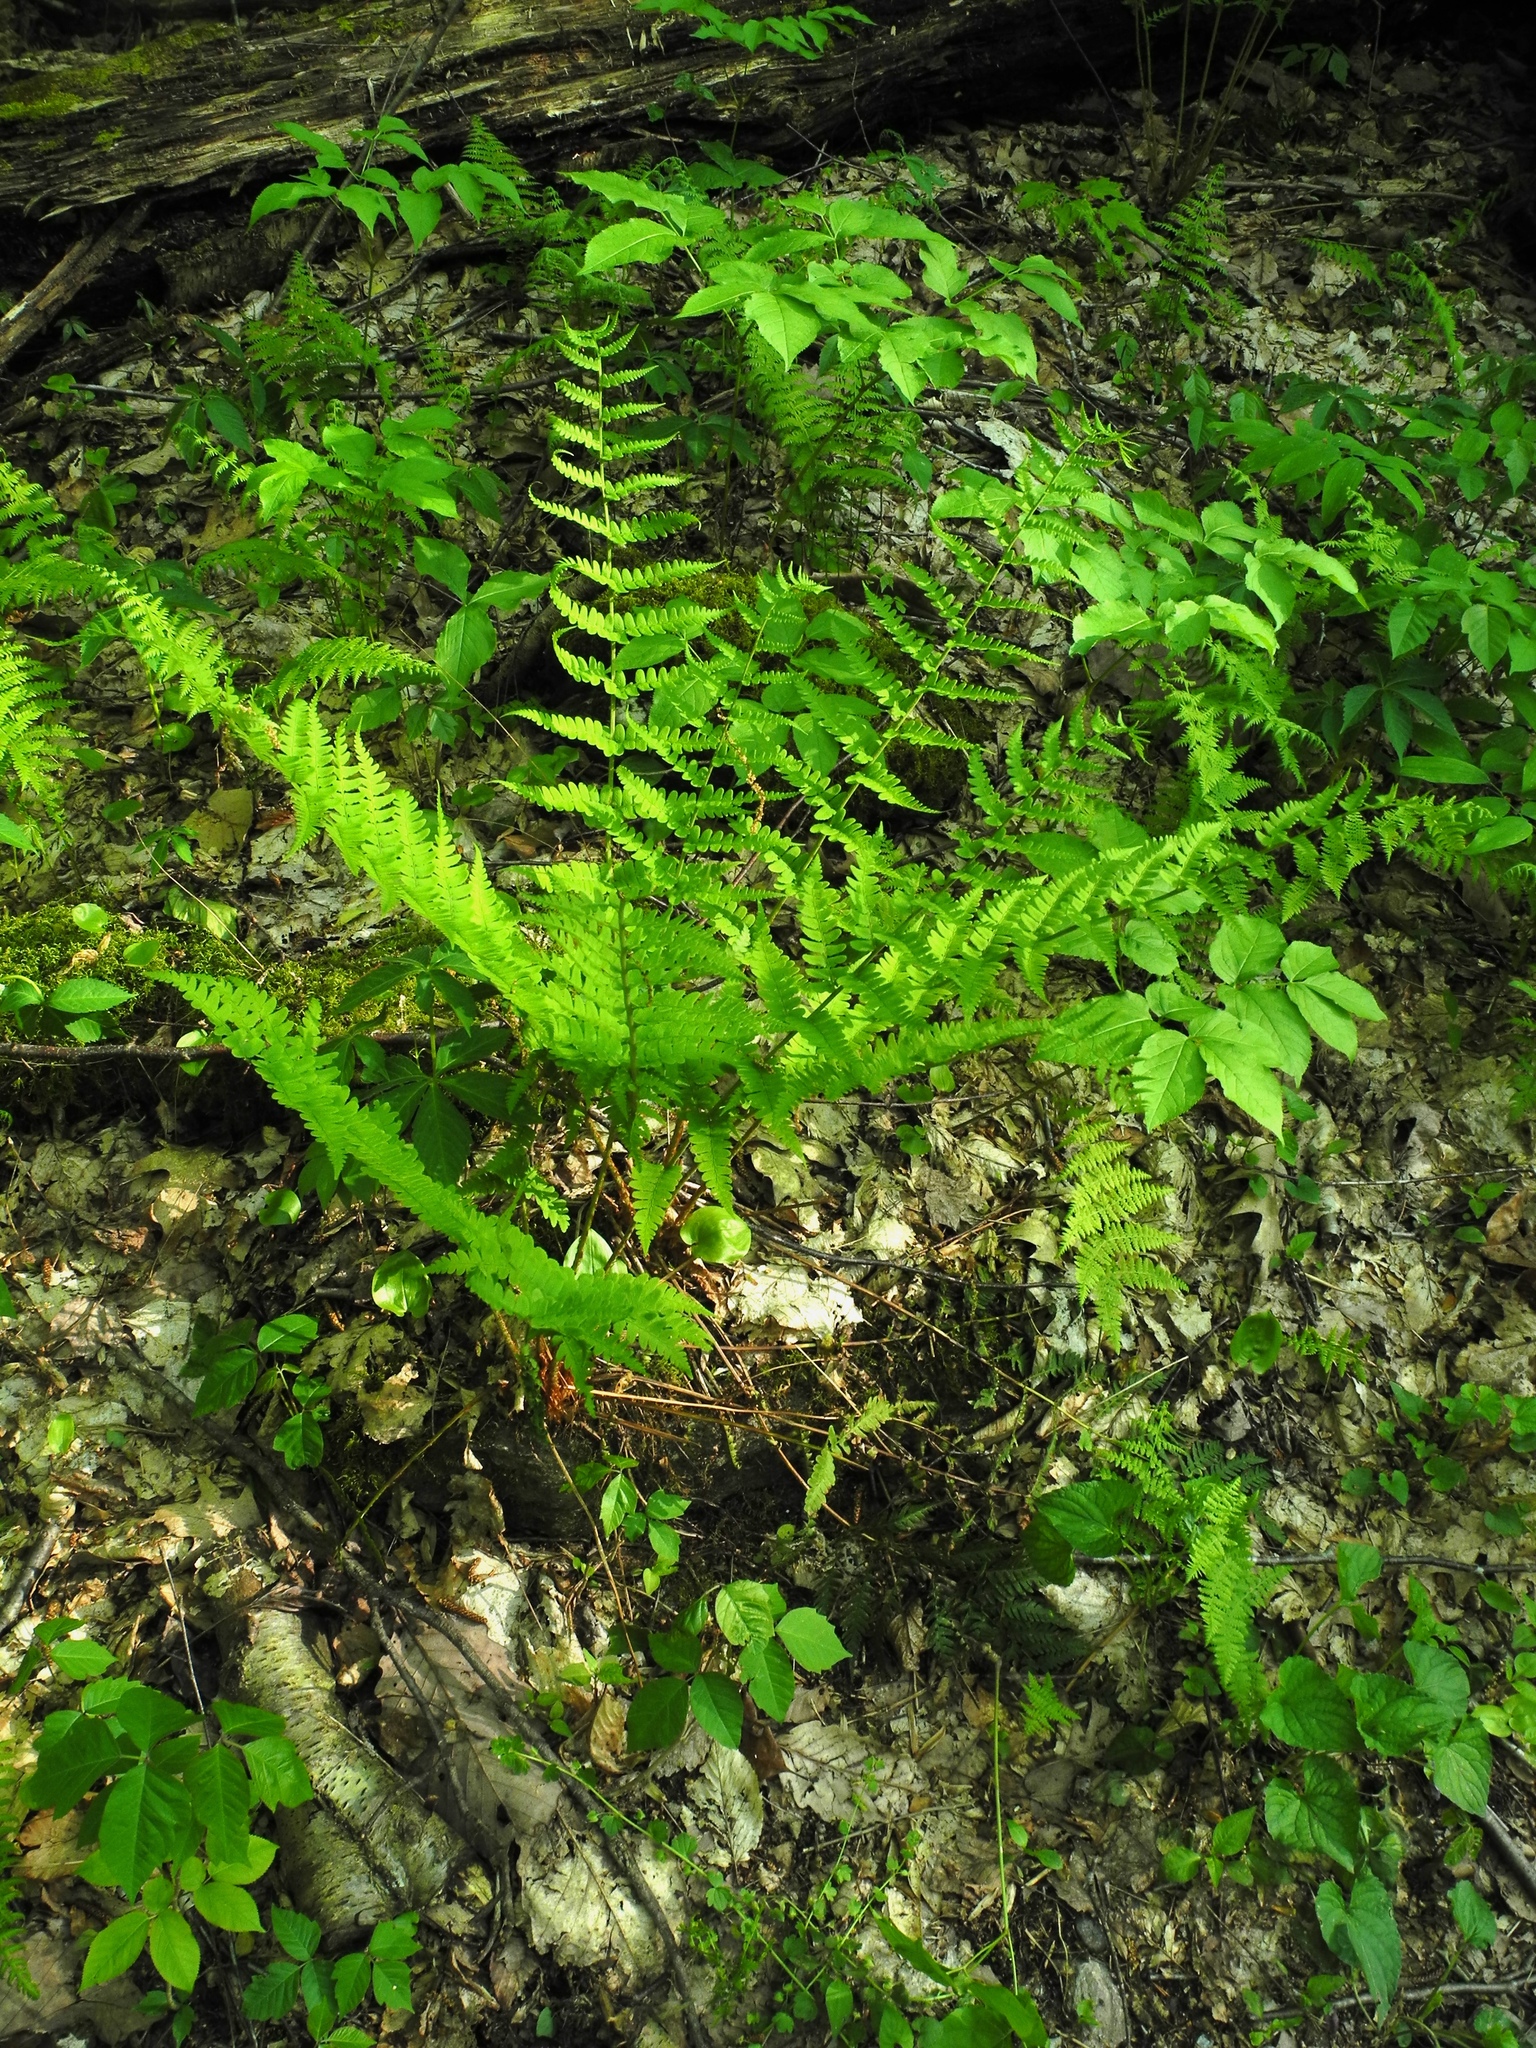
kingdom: Plantae
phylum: Tracheophyta
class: Polypodiopsida
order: Polypodiales
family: Dryopteridaceae
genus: Dryopteris
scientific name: Dryopteris marginalis
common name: Marginal wood fern
